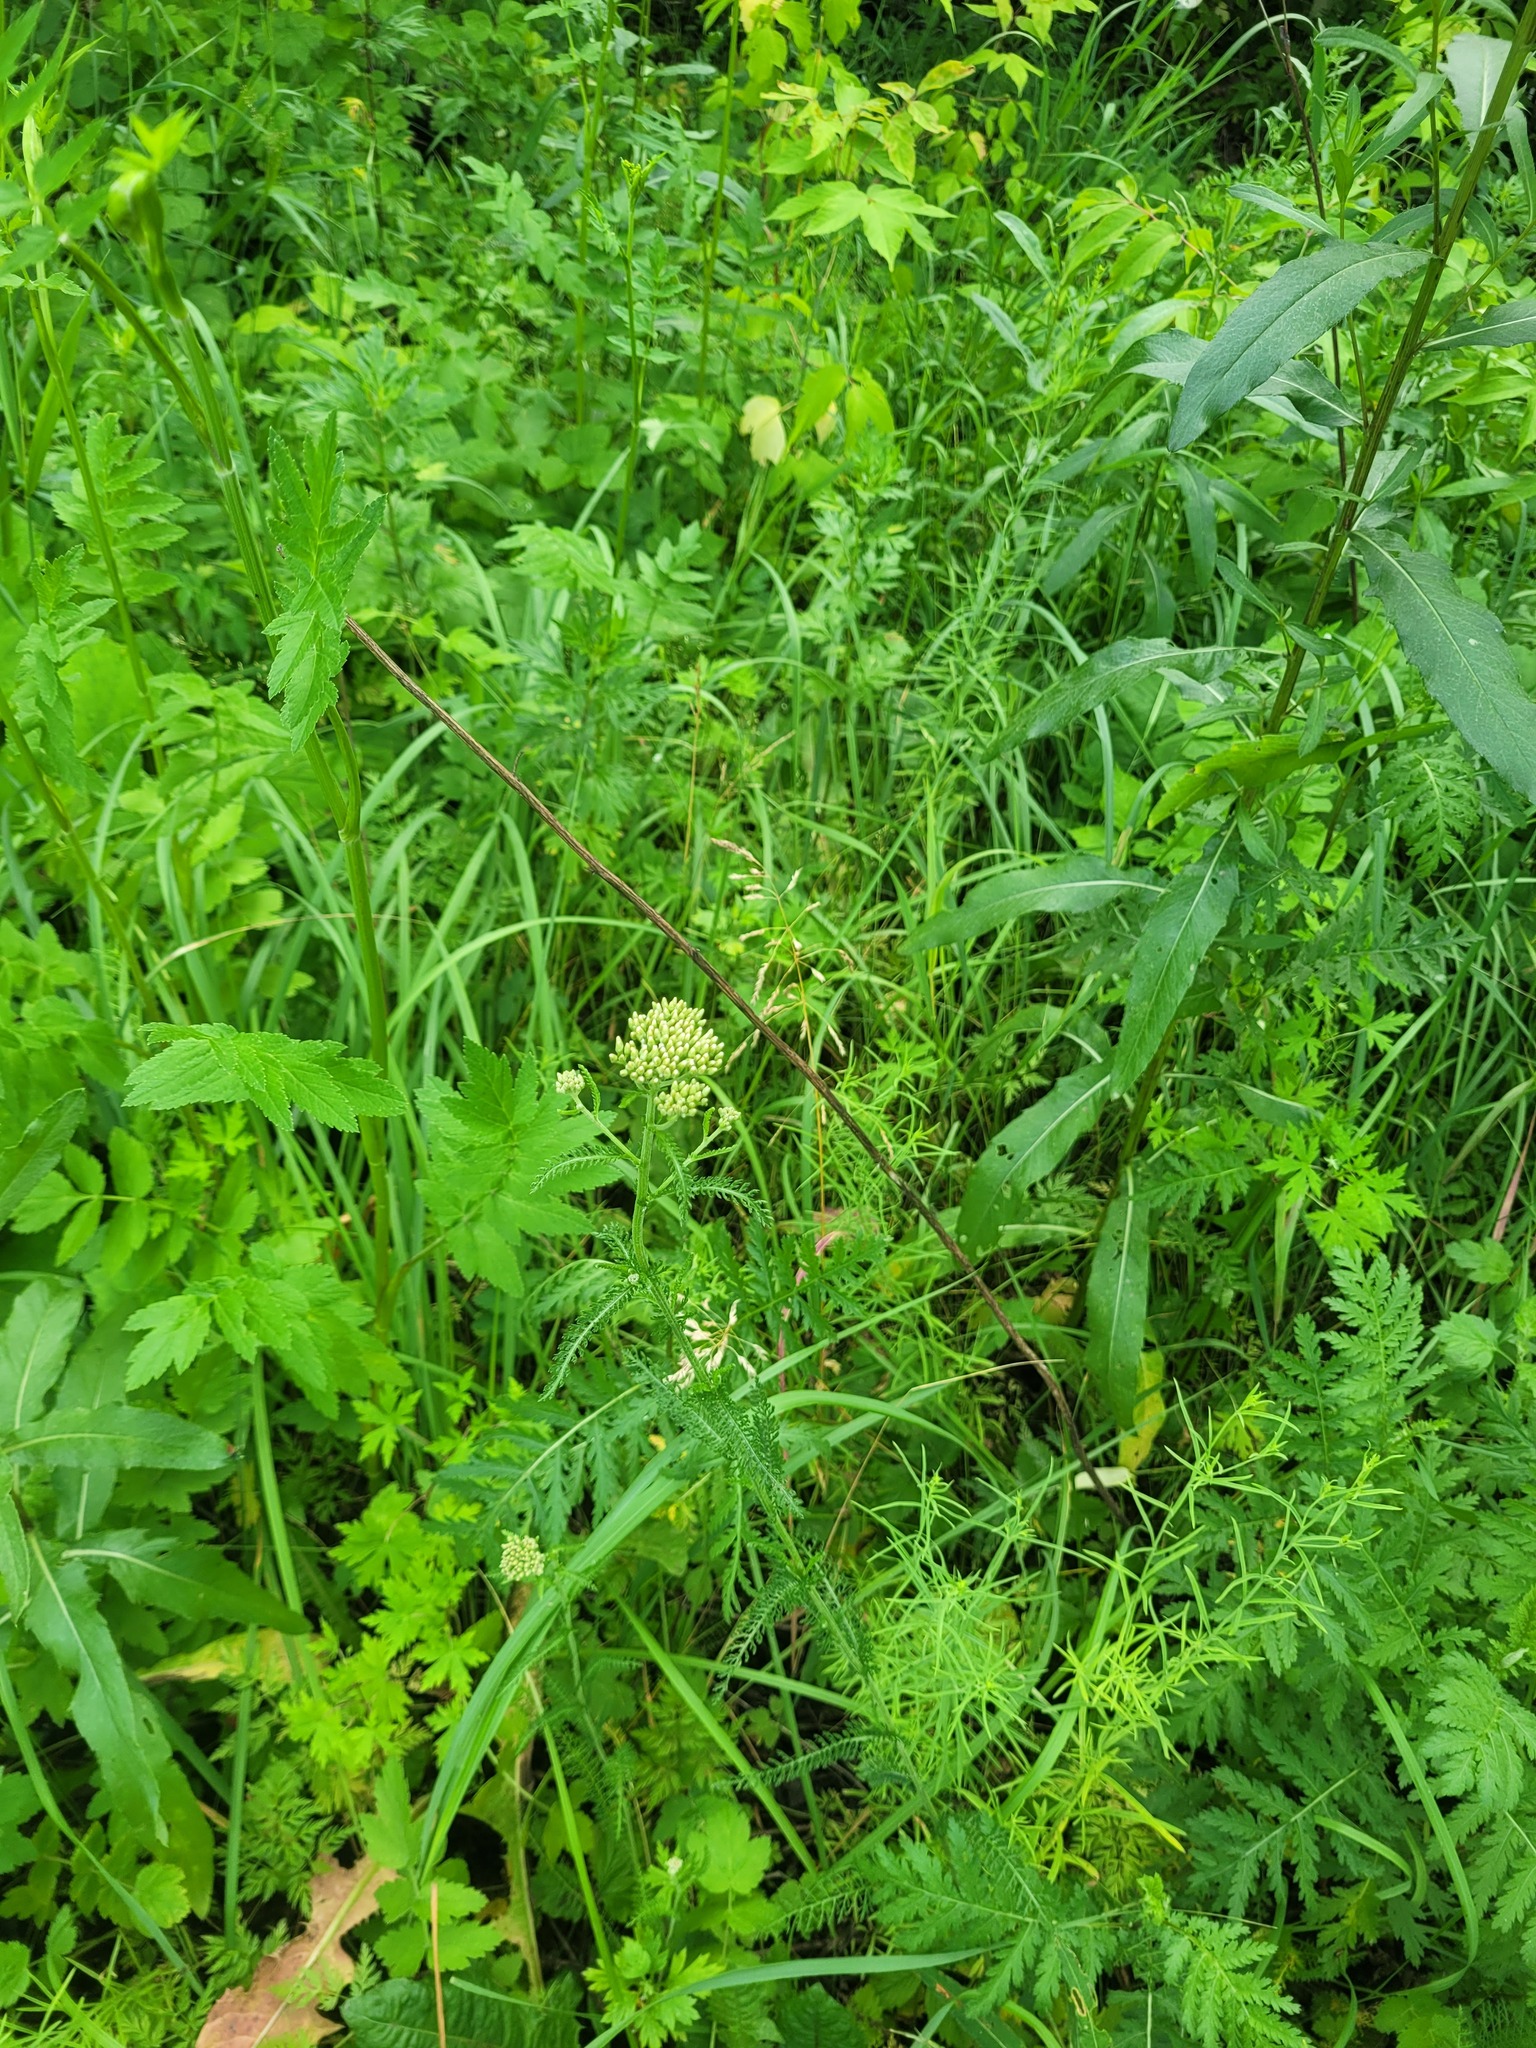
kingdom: Plantae
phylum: Tracheophyta
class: Magnoliopsida
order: Asterales
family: Asteraceae
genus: Achillea
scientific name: Achillea millefolium
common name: Yarrow
